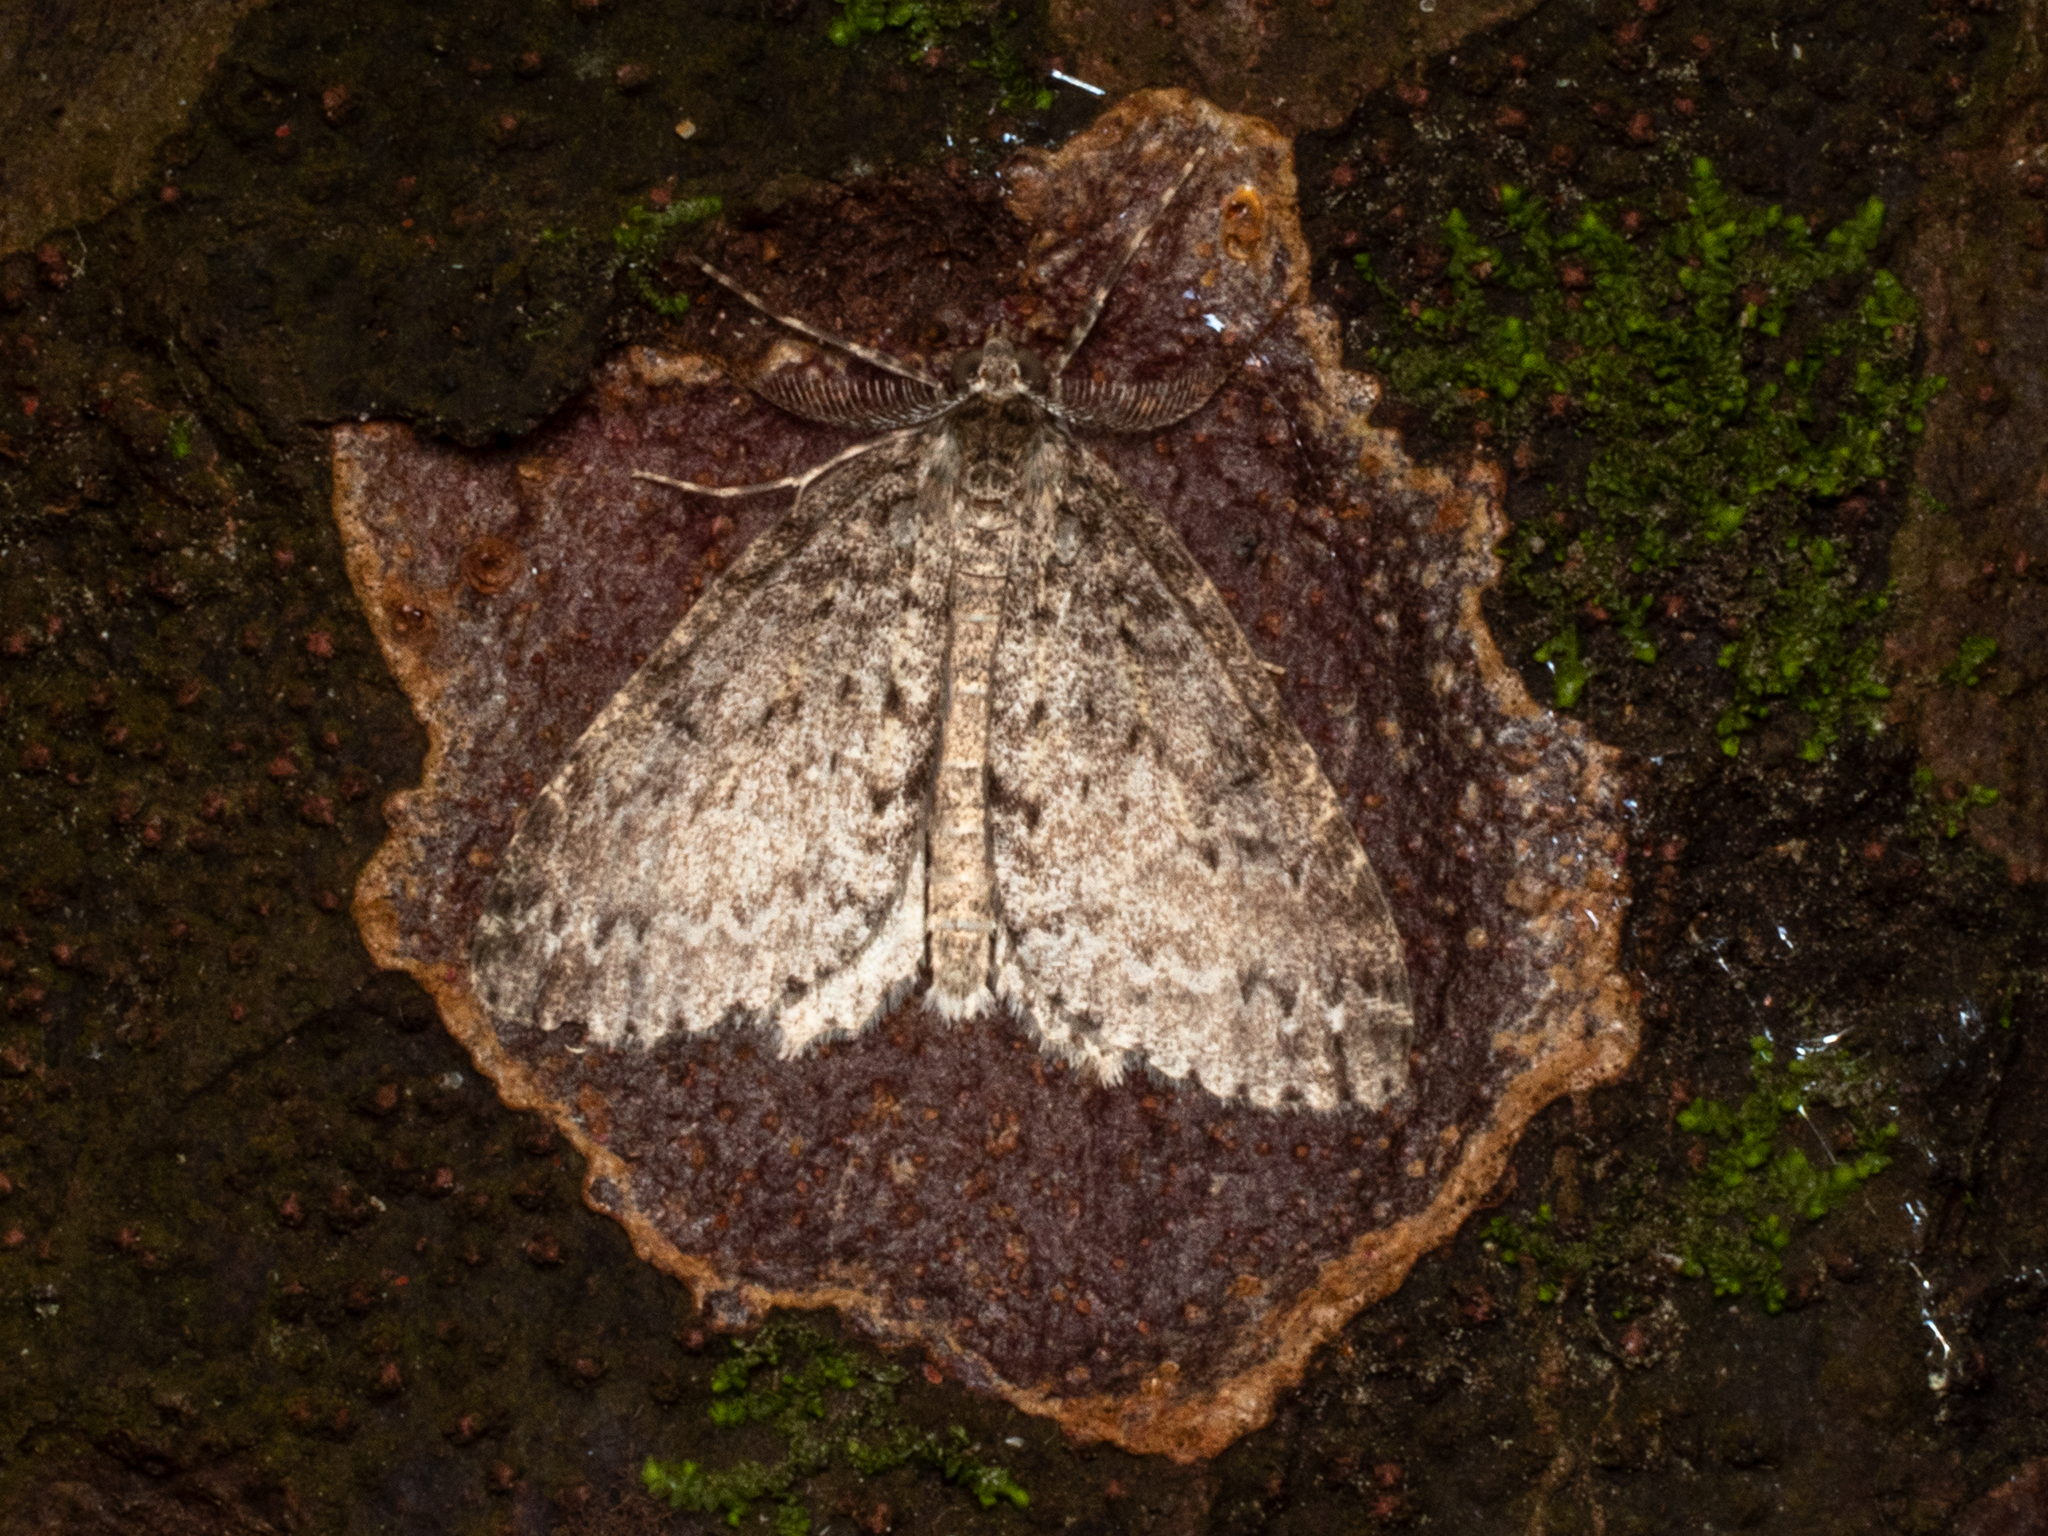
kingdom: Animalia
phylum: Arthropoda
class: Insecta
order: Lepidoptera
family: Geometridae
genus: Pseudocoremia
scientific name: Pseudocoremia fenerata
